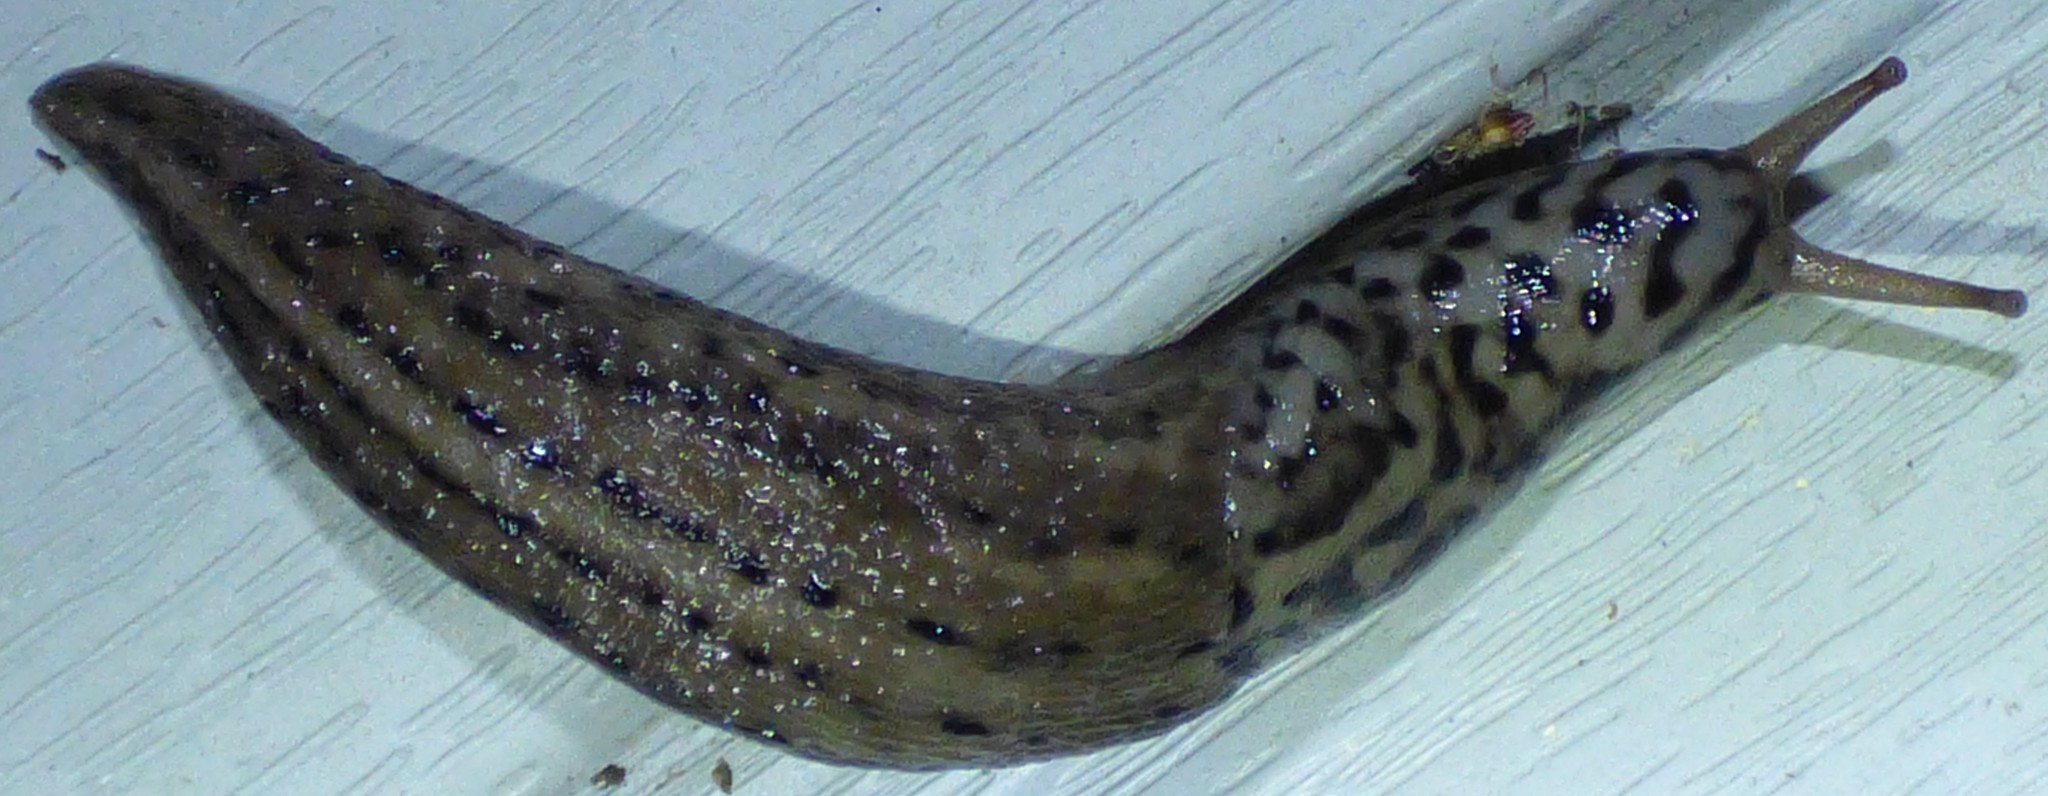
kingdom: Animalia
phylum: Mollusca
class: Gastropoda
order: Stylommatophora
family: Limacidae
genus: Limax
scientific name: Limax maximus
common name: Great grey slug
